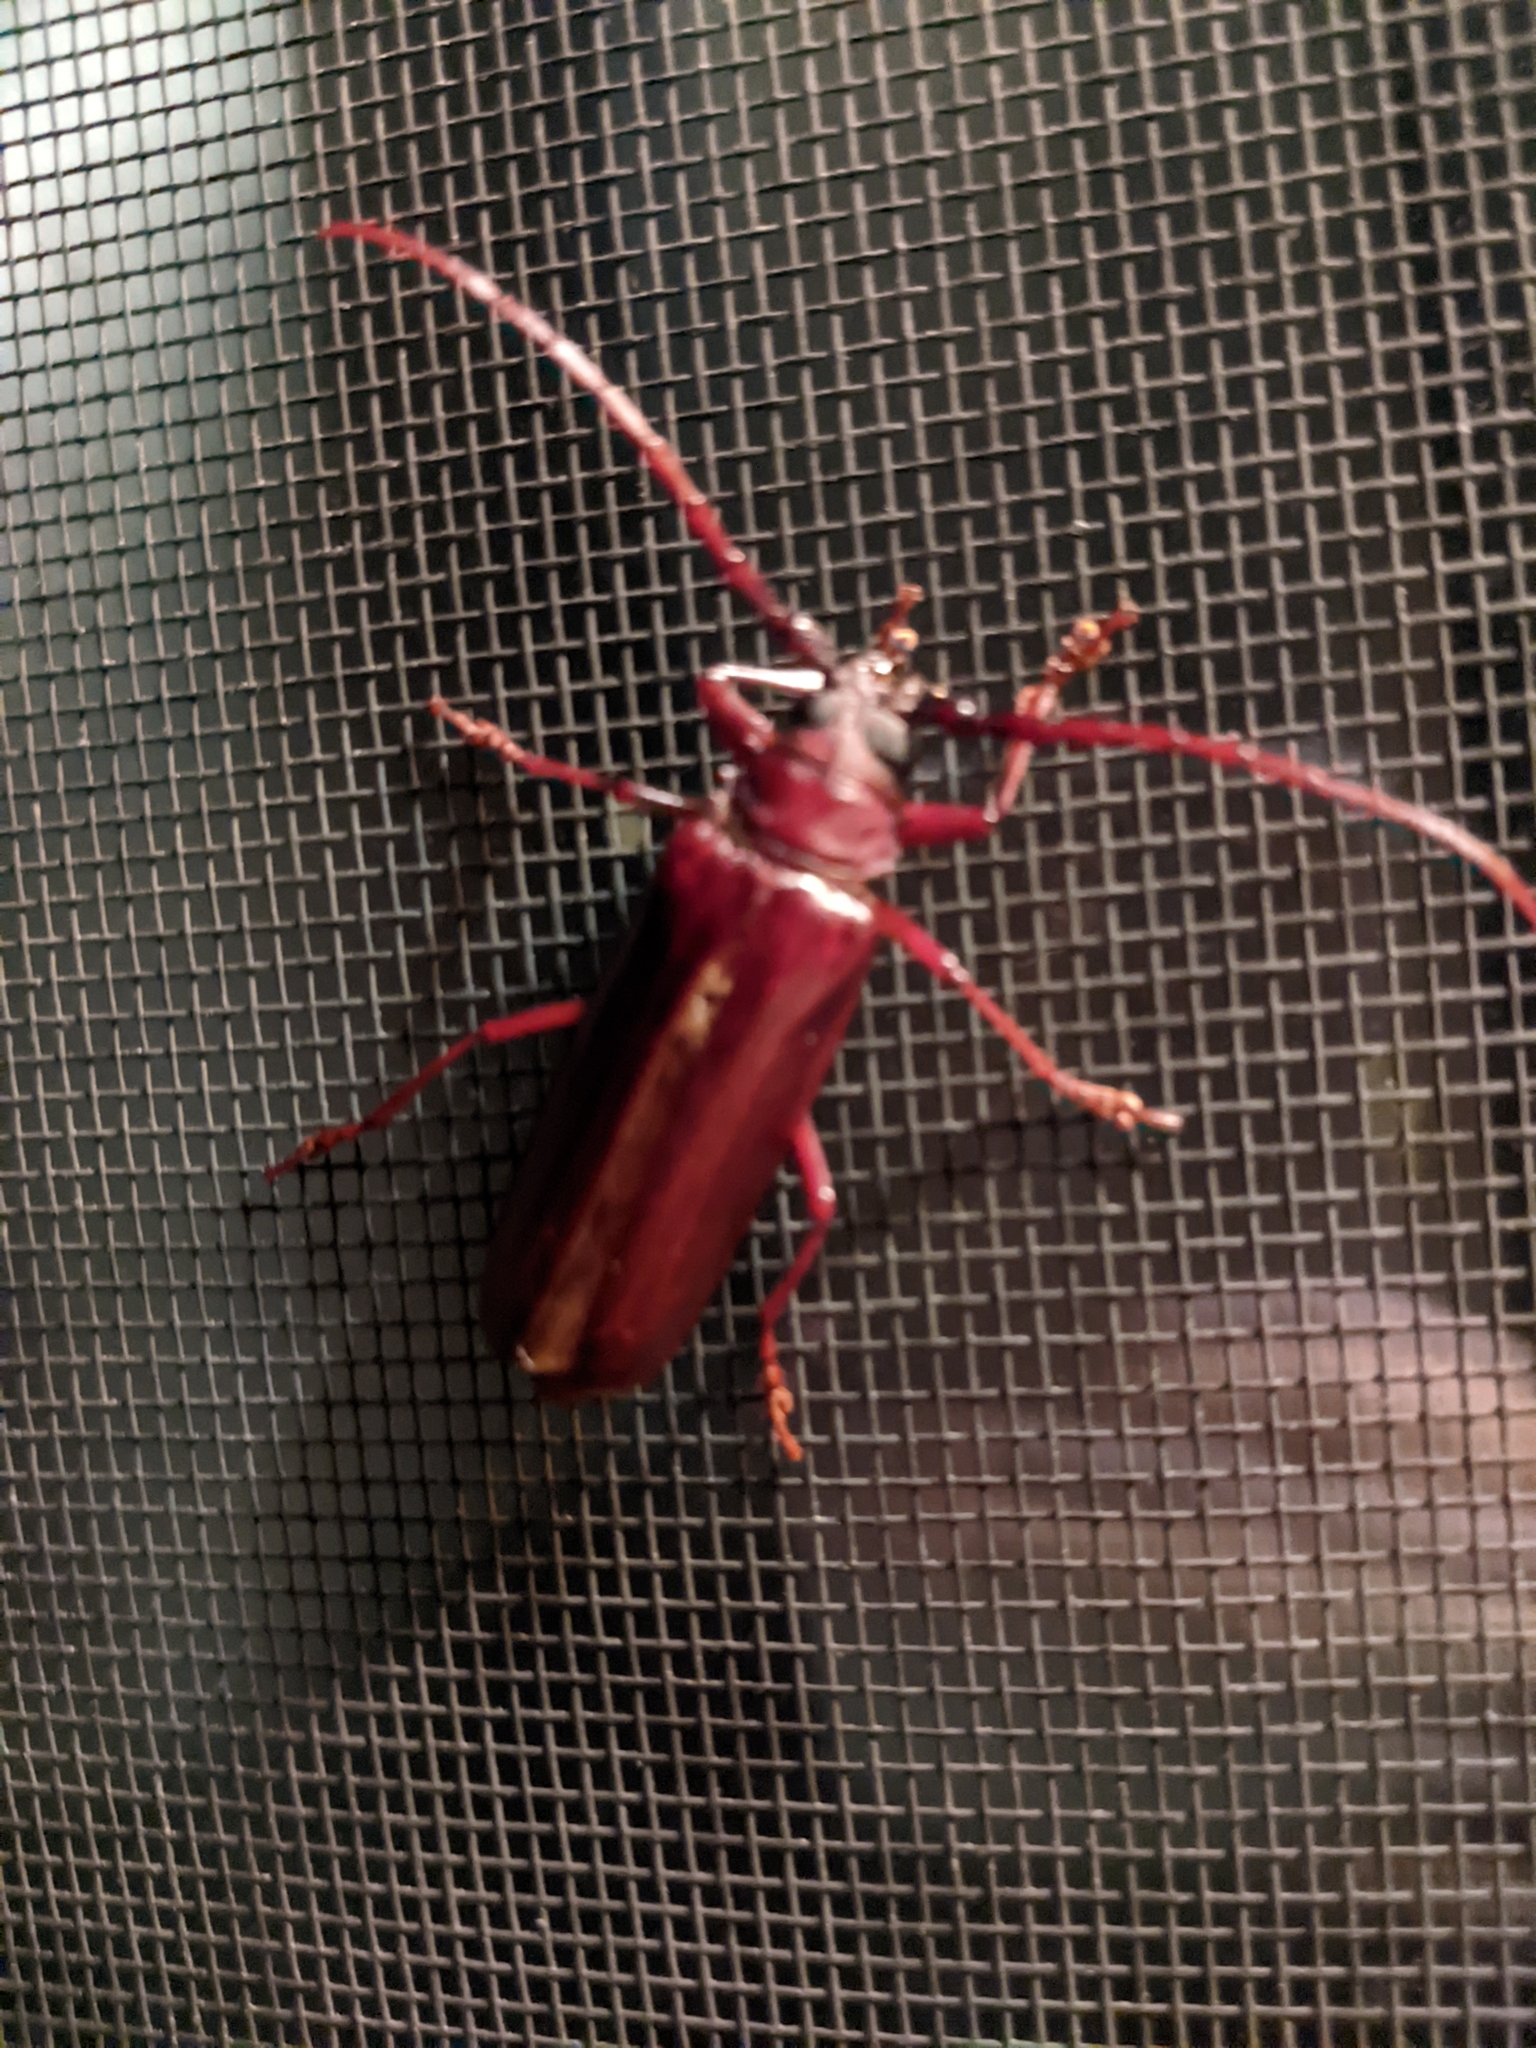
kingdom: Animalia
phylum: Arthropoda
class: Insecta
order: Coleoptera
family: Cerambycidae
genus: Orthosoma
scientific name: Orthosoma brunneum
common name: Brown prionid beetle
